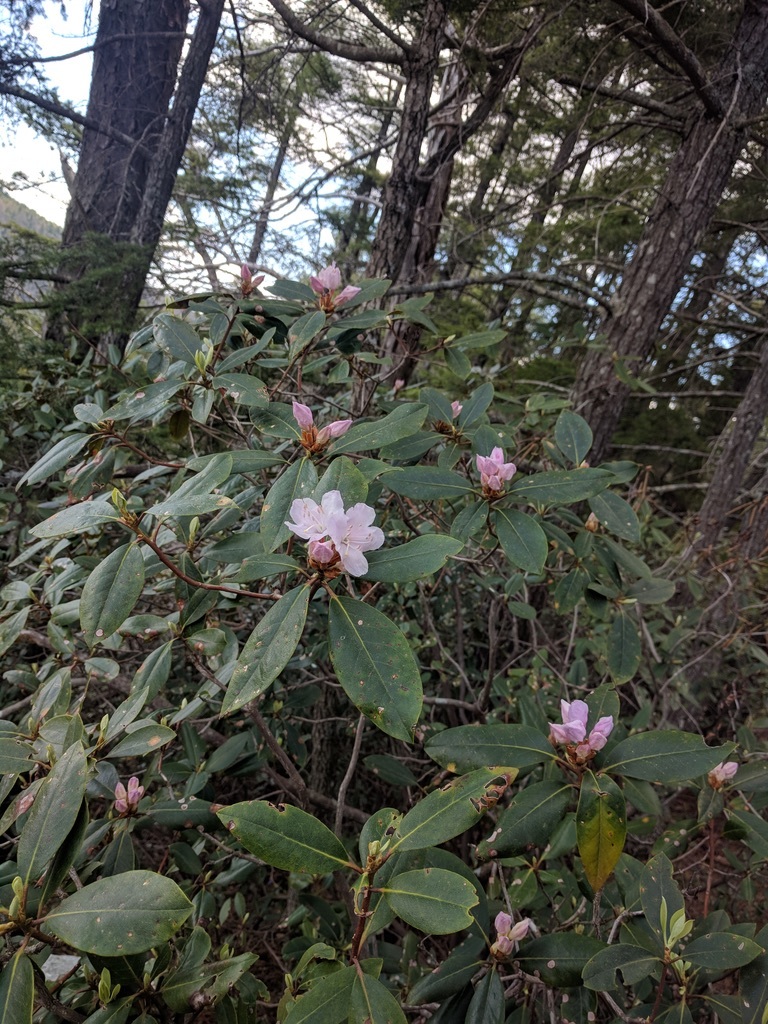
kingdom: Plantae
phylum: Tracheophyta
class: Magnoliopsida
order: Ericales
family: Ericaceae
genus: Rhododendron
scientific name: Rhododendron minus
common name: Piedmont rhododendron
